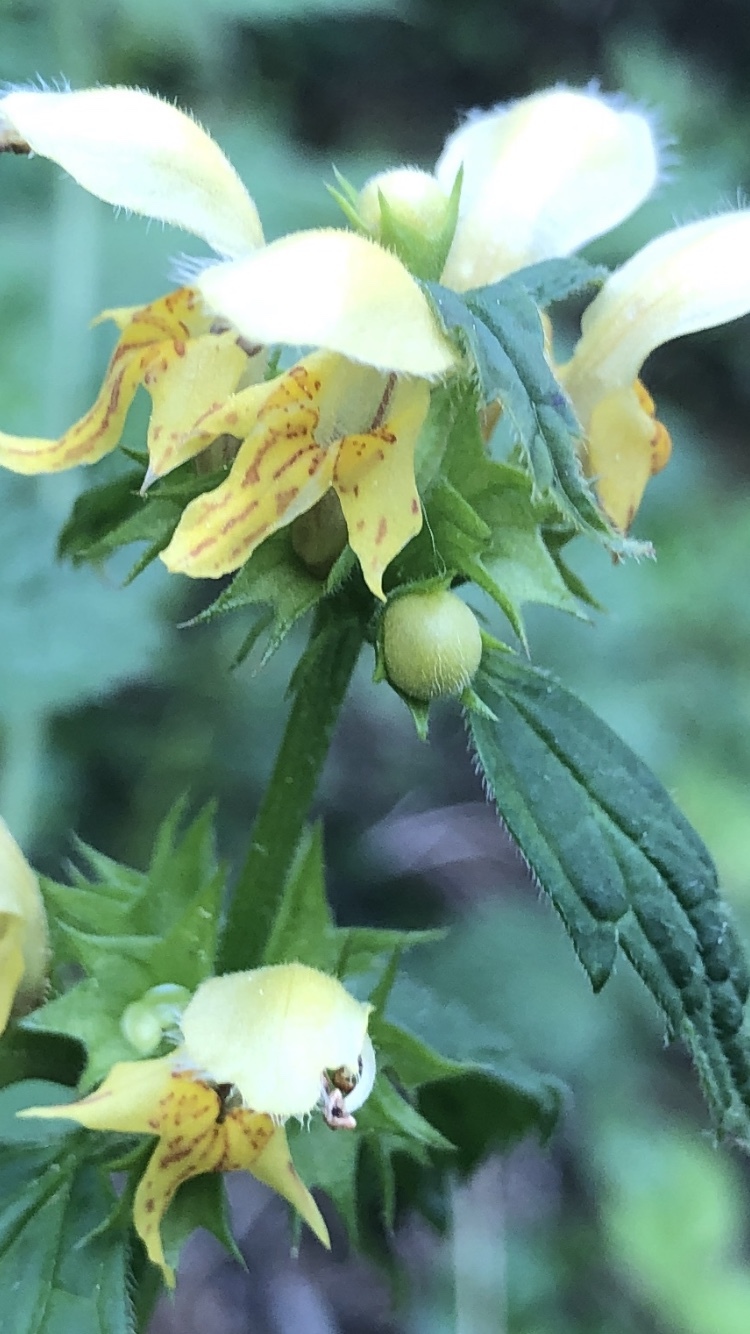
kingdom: Plantae
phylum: Tracheophyta
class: Magnoliopsida
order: Lamiales
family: Lamiaceae
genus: Lamium
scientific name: Lamium galeobdolon
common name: Yellow archangel
